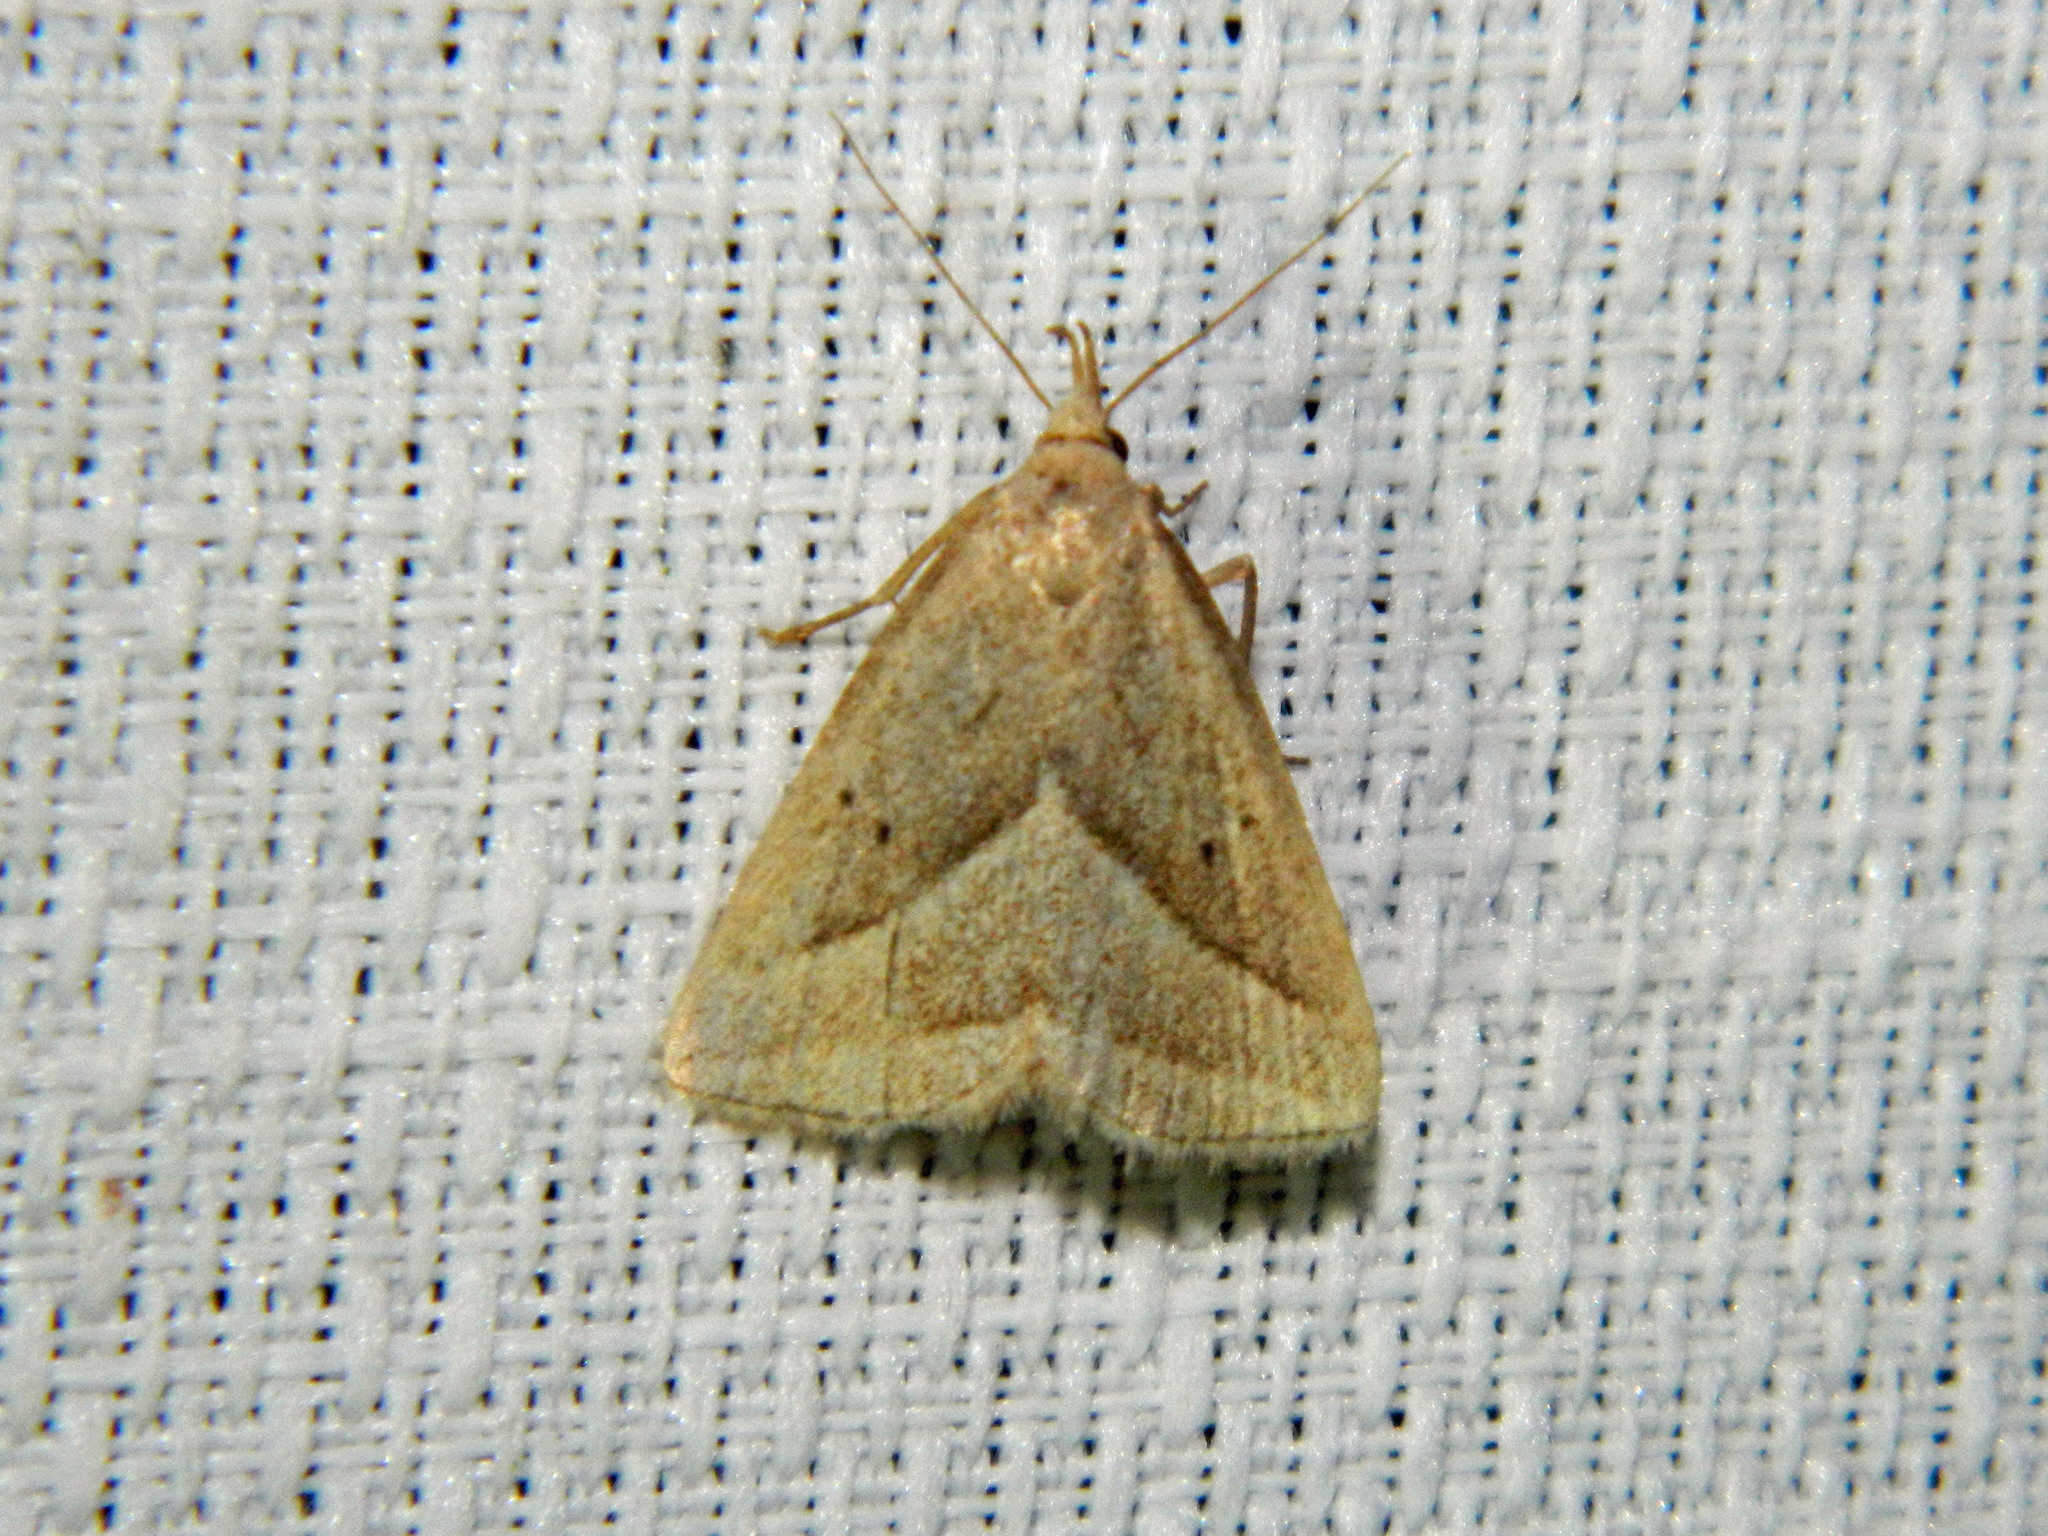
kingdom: Animalia
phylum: Arthropoda
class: Insecta
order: Lepidoptera
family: Erebidae
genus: Macrochilo
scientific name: Macrochilo absorptalis
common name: Slant-lined owlet
